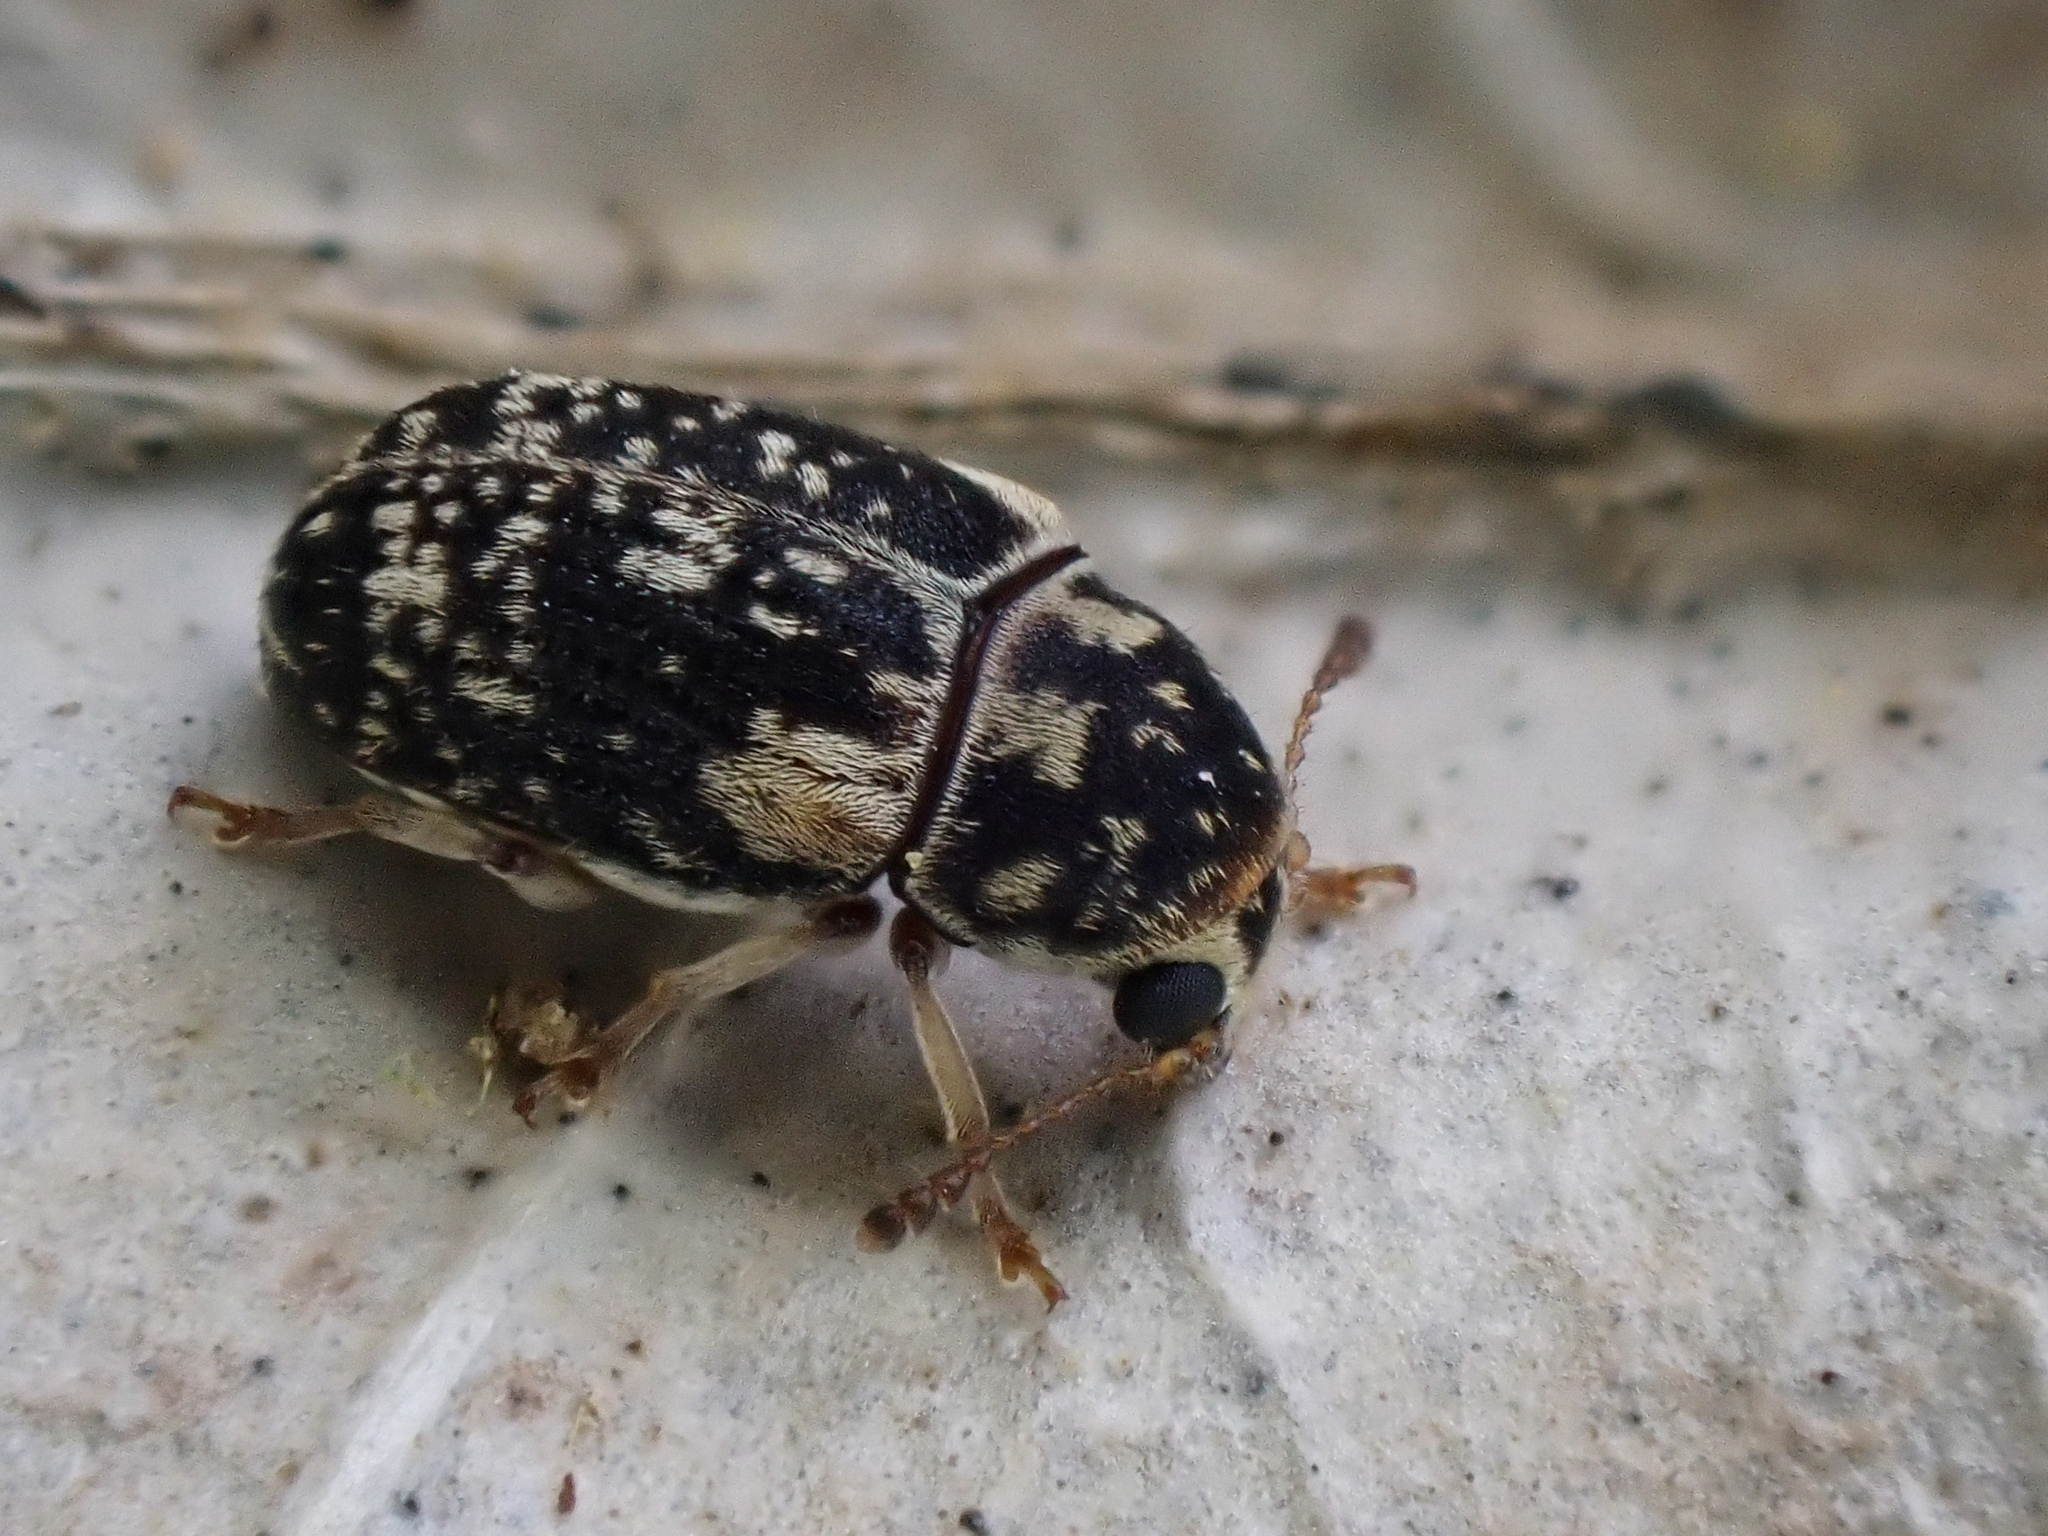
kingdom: Animalia
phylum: Arthropoda
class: Insecta
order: Coleoptera
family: Anthribidae
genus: Liromus
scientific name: Liromus
